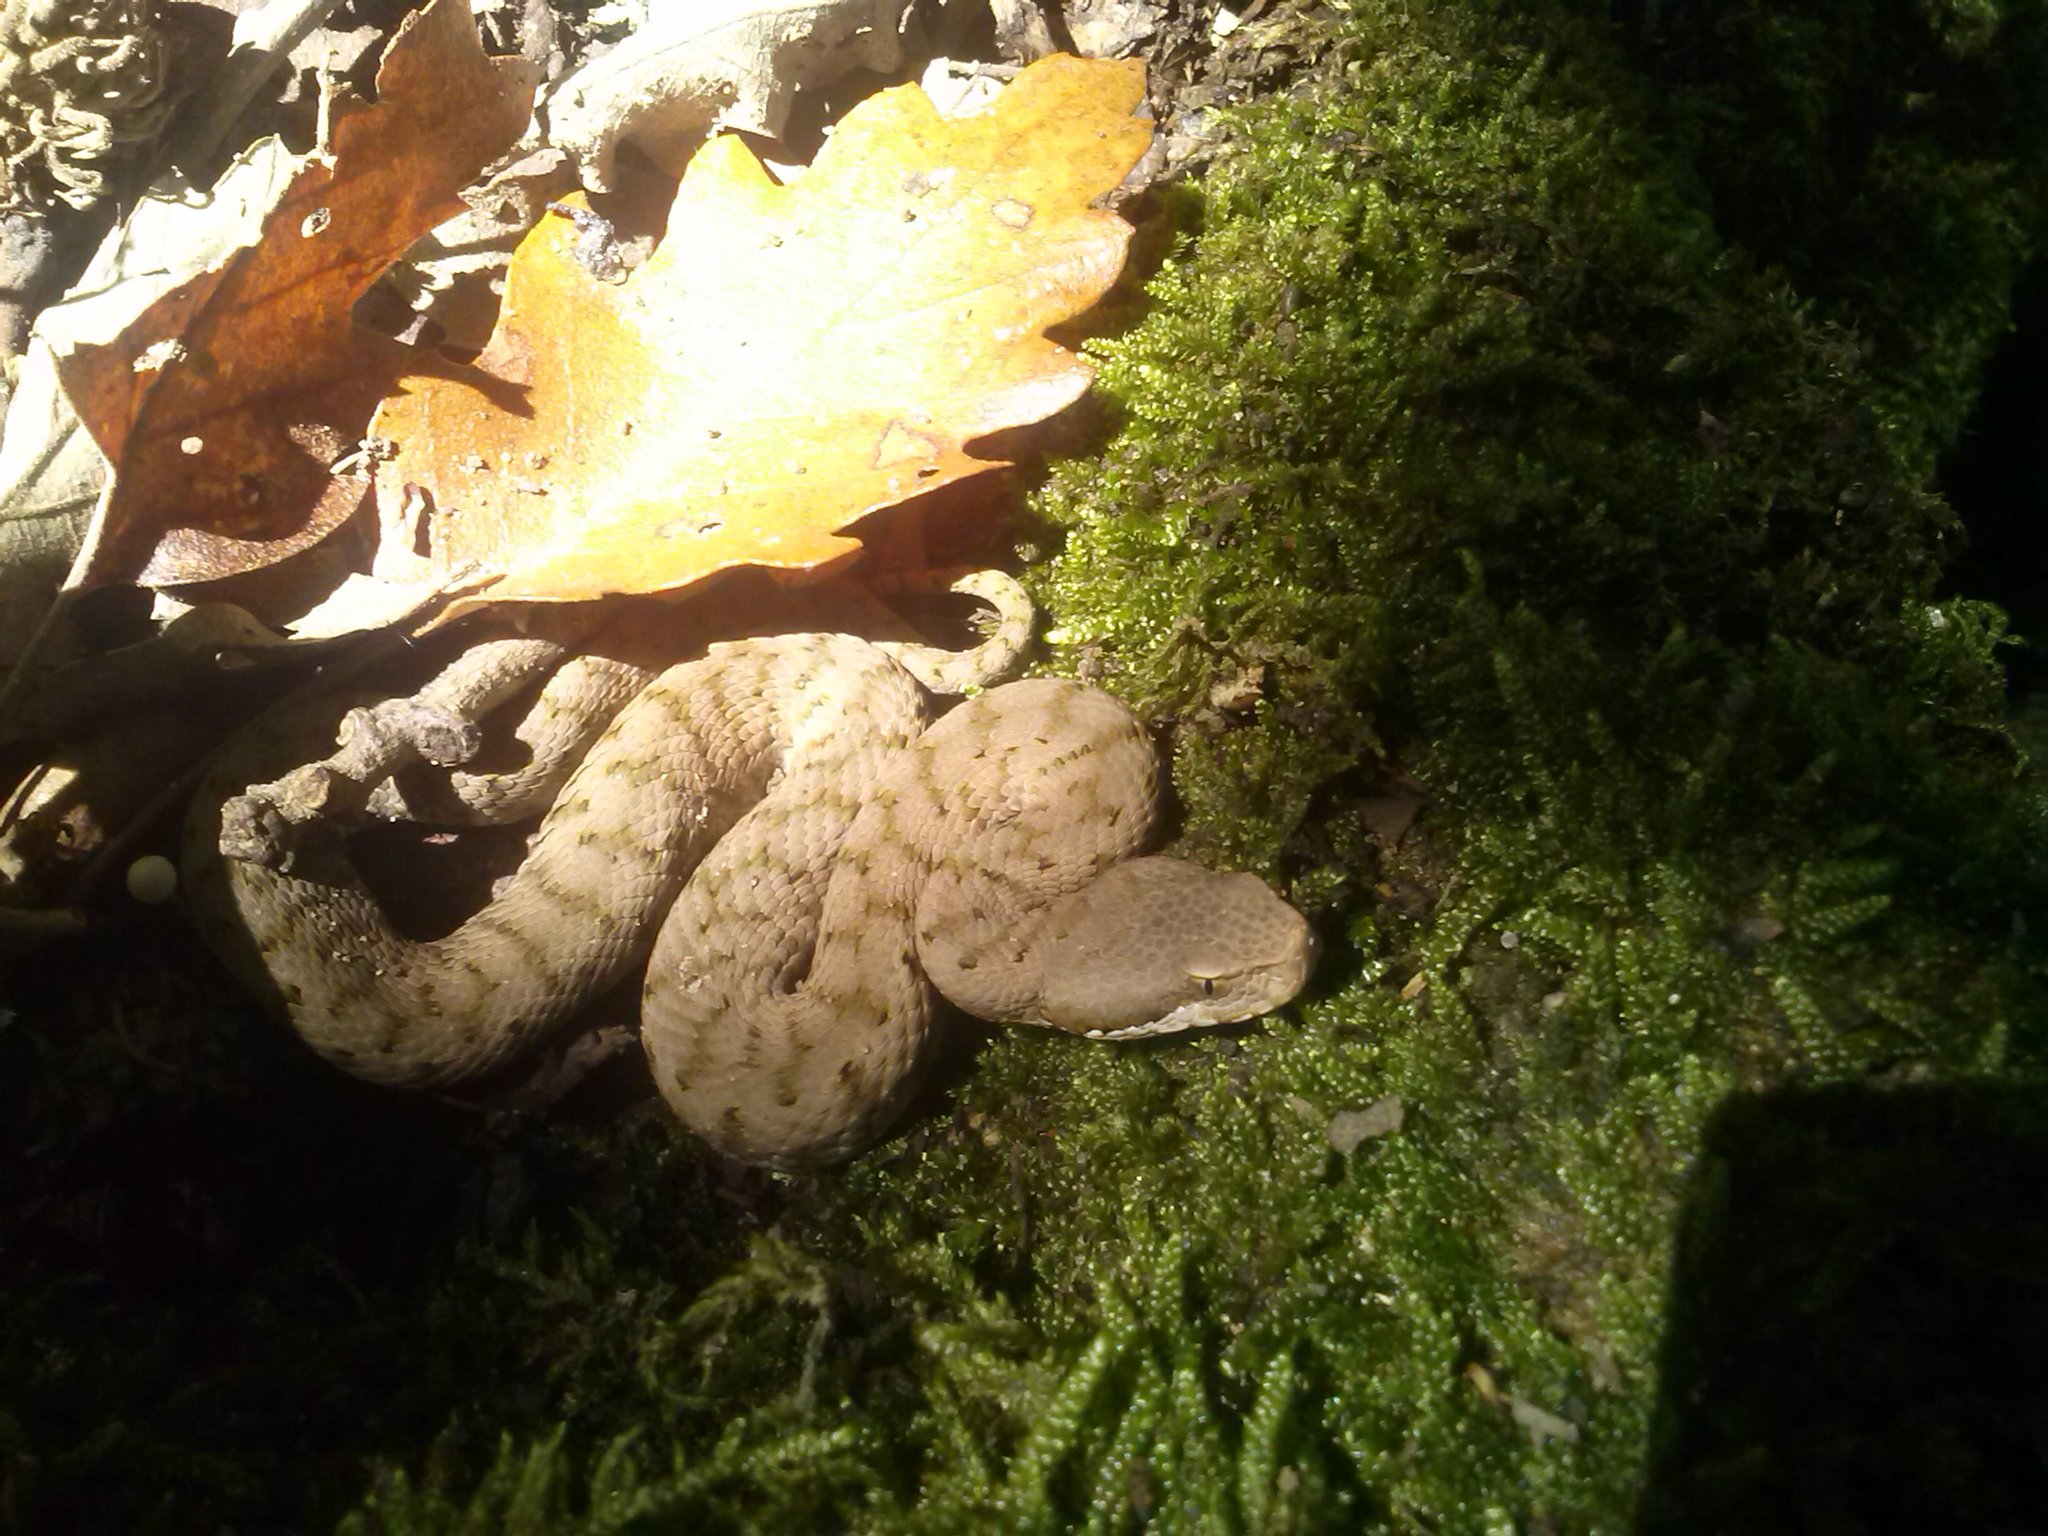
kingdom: Animalia
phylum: Chordata
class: Squamata
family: Viperidae
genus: Vipera
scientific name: Vipera aspis
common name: Asp viper
